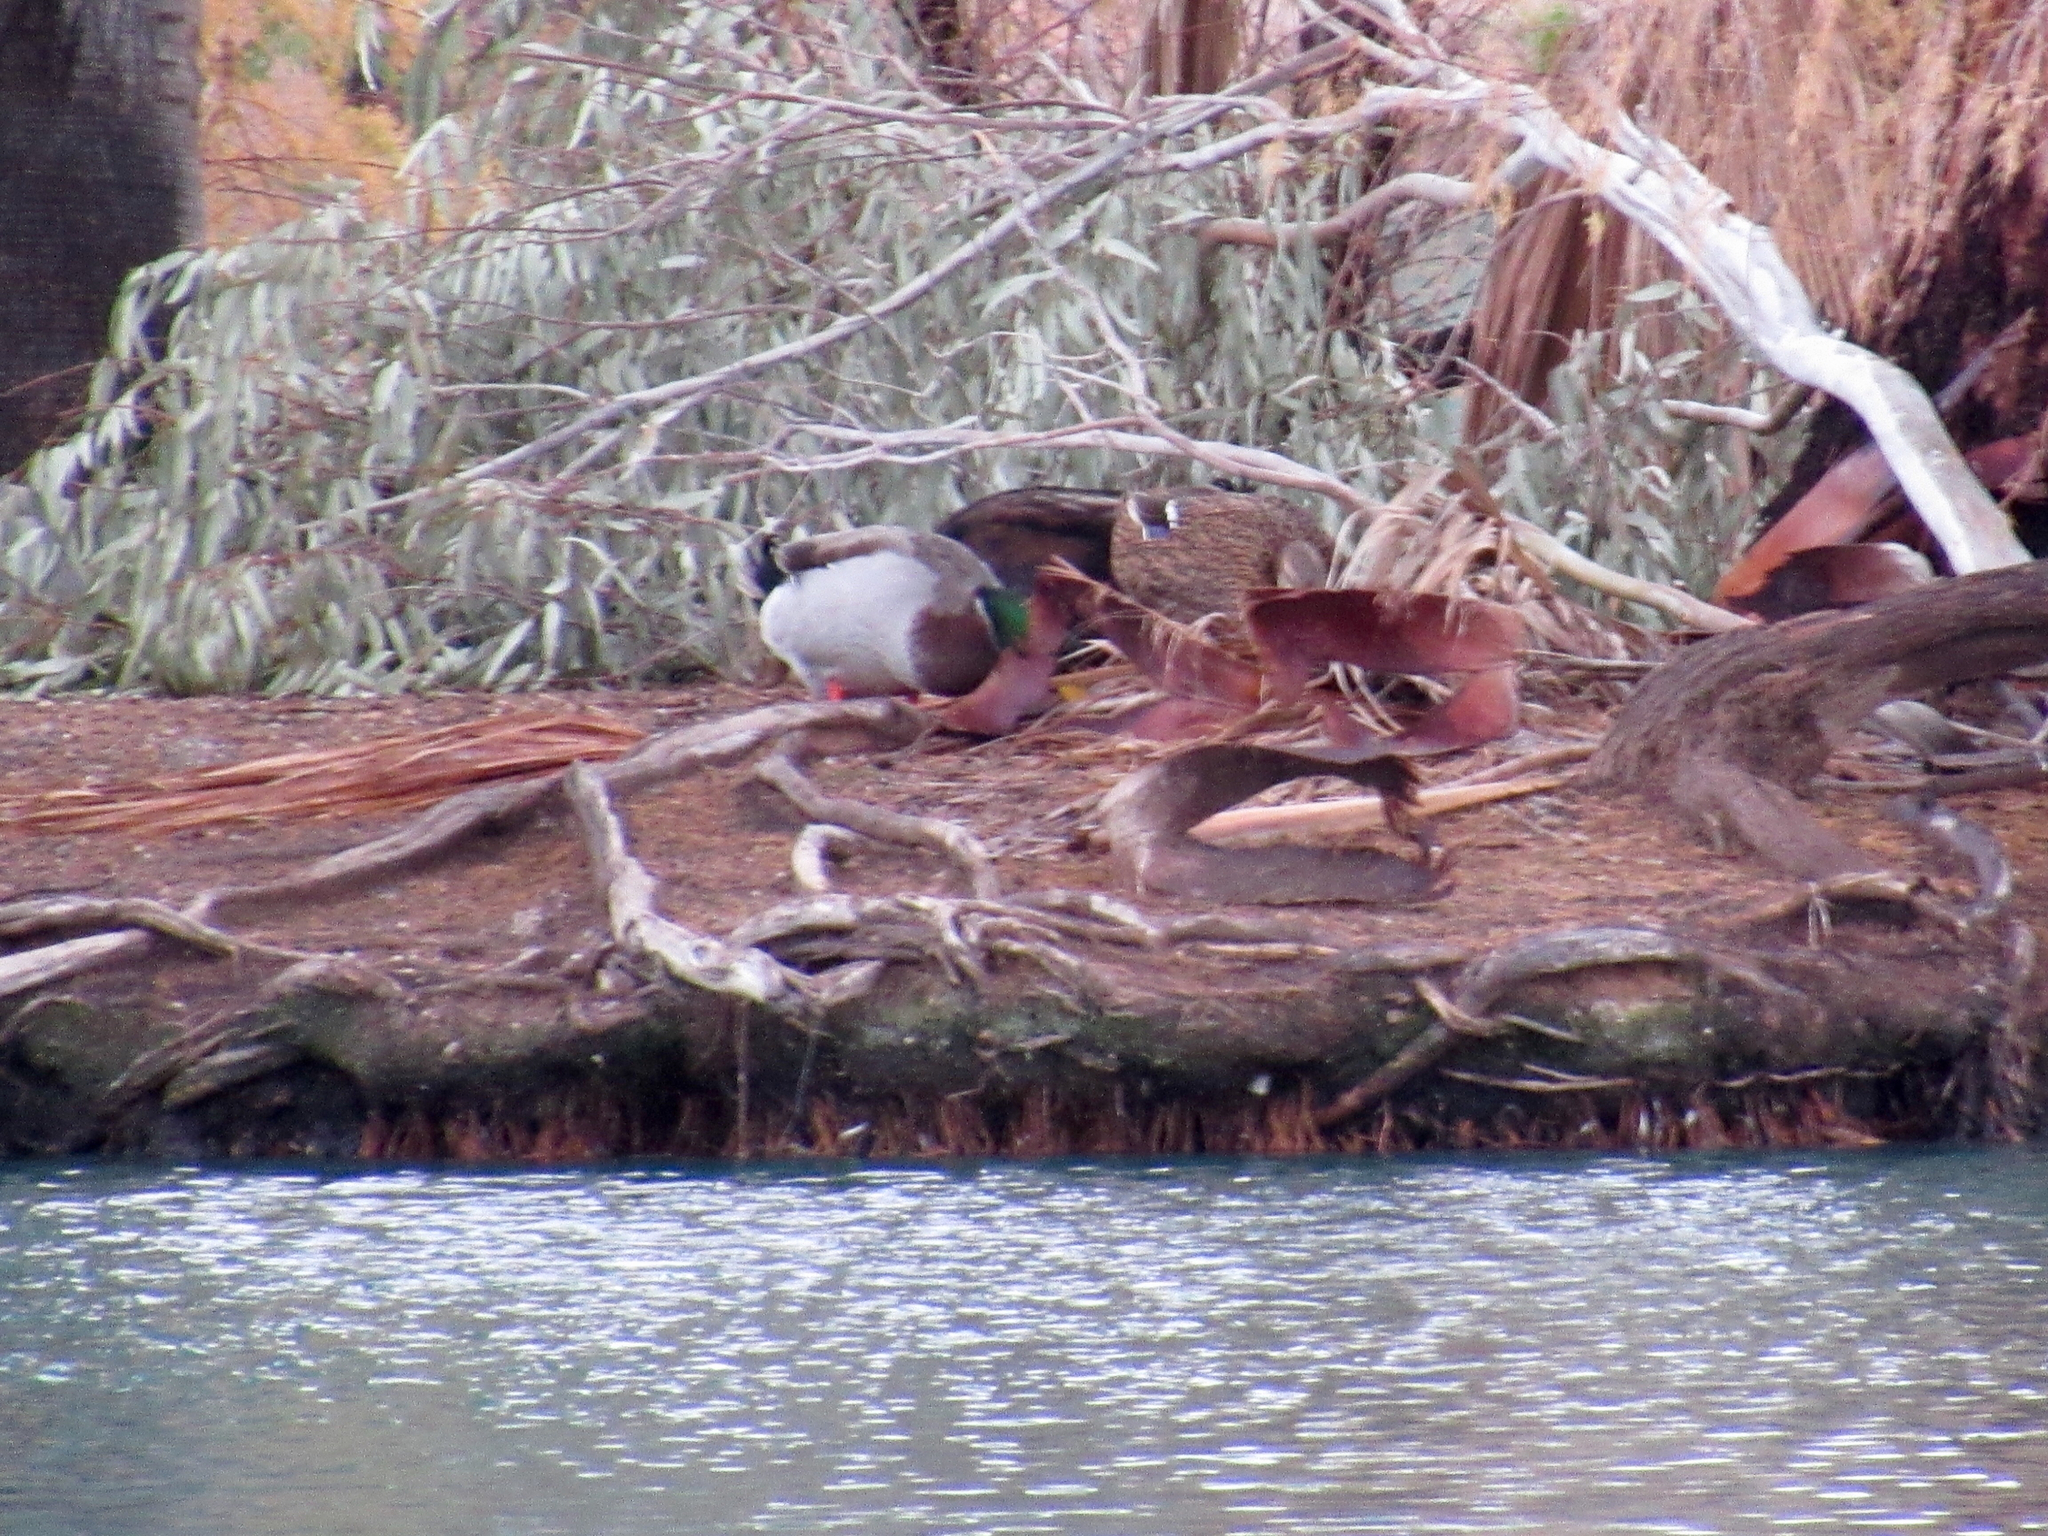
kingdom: Animalia
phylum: Chordata
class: Aves
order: Anseriformes
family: Anatidae
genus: Anas
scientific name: Anas platyrhynchos
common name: Mallard
